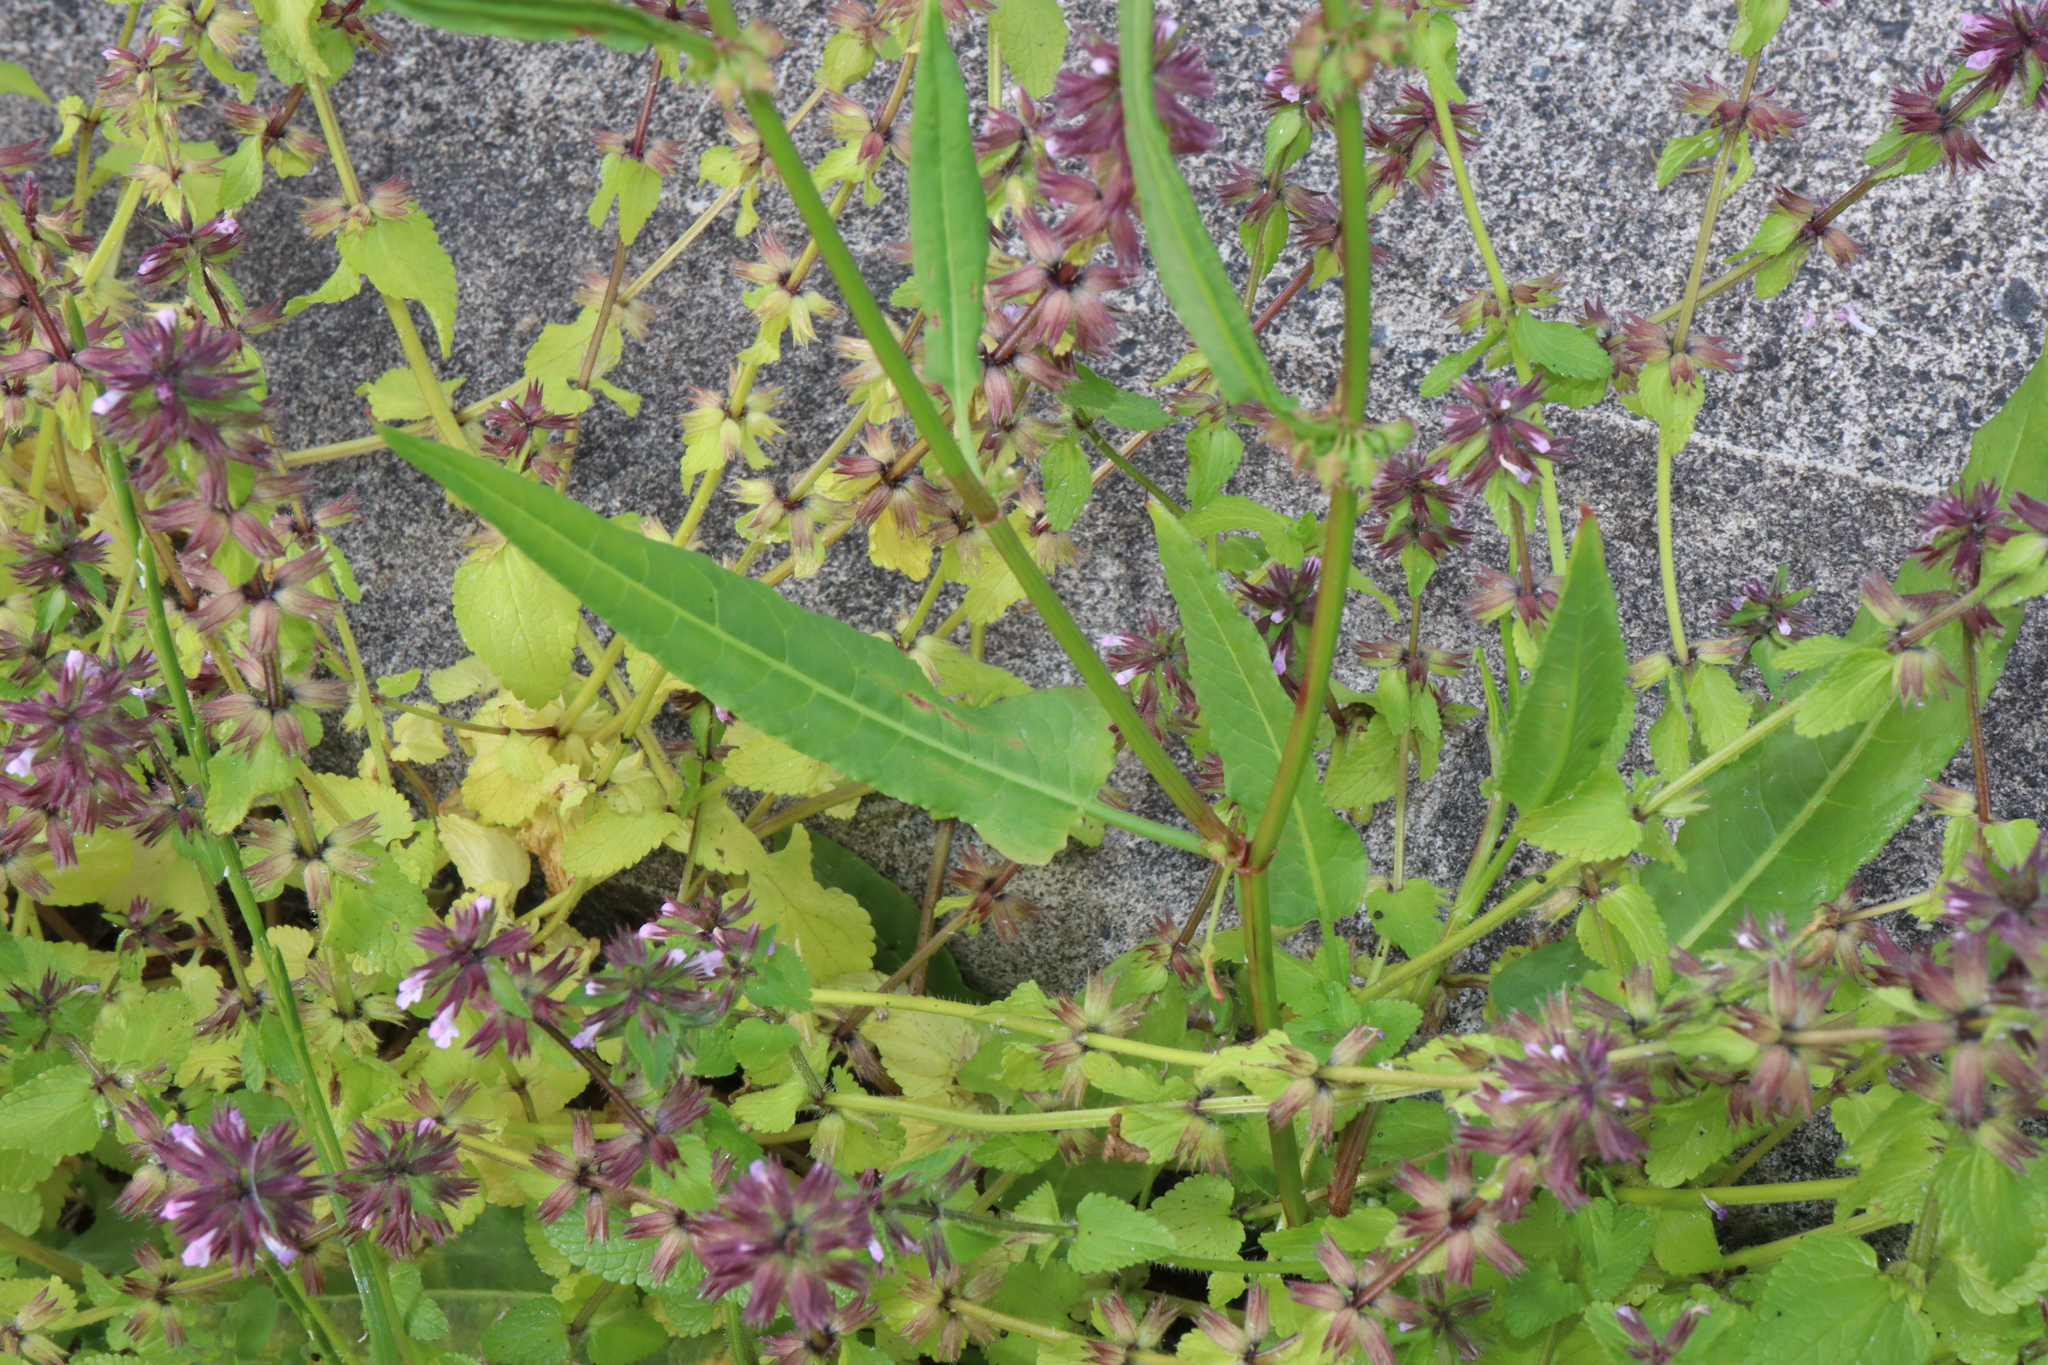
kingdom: Plantae
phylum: Tracheophyta
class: Magnoliopsida
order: Caryophyllales
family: Polygonaceae
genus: Rumex
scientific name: Rumex brownii
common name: Hooked dock
